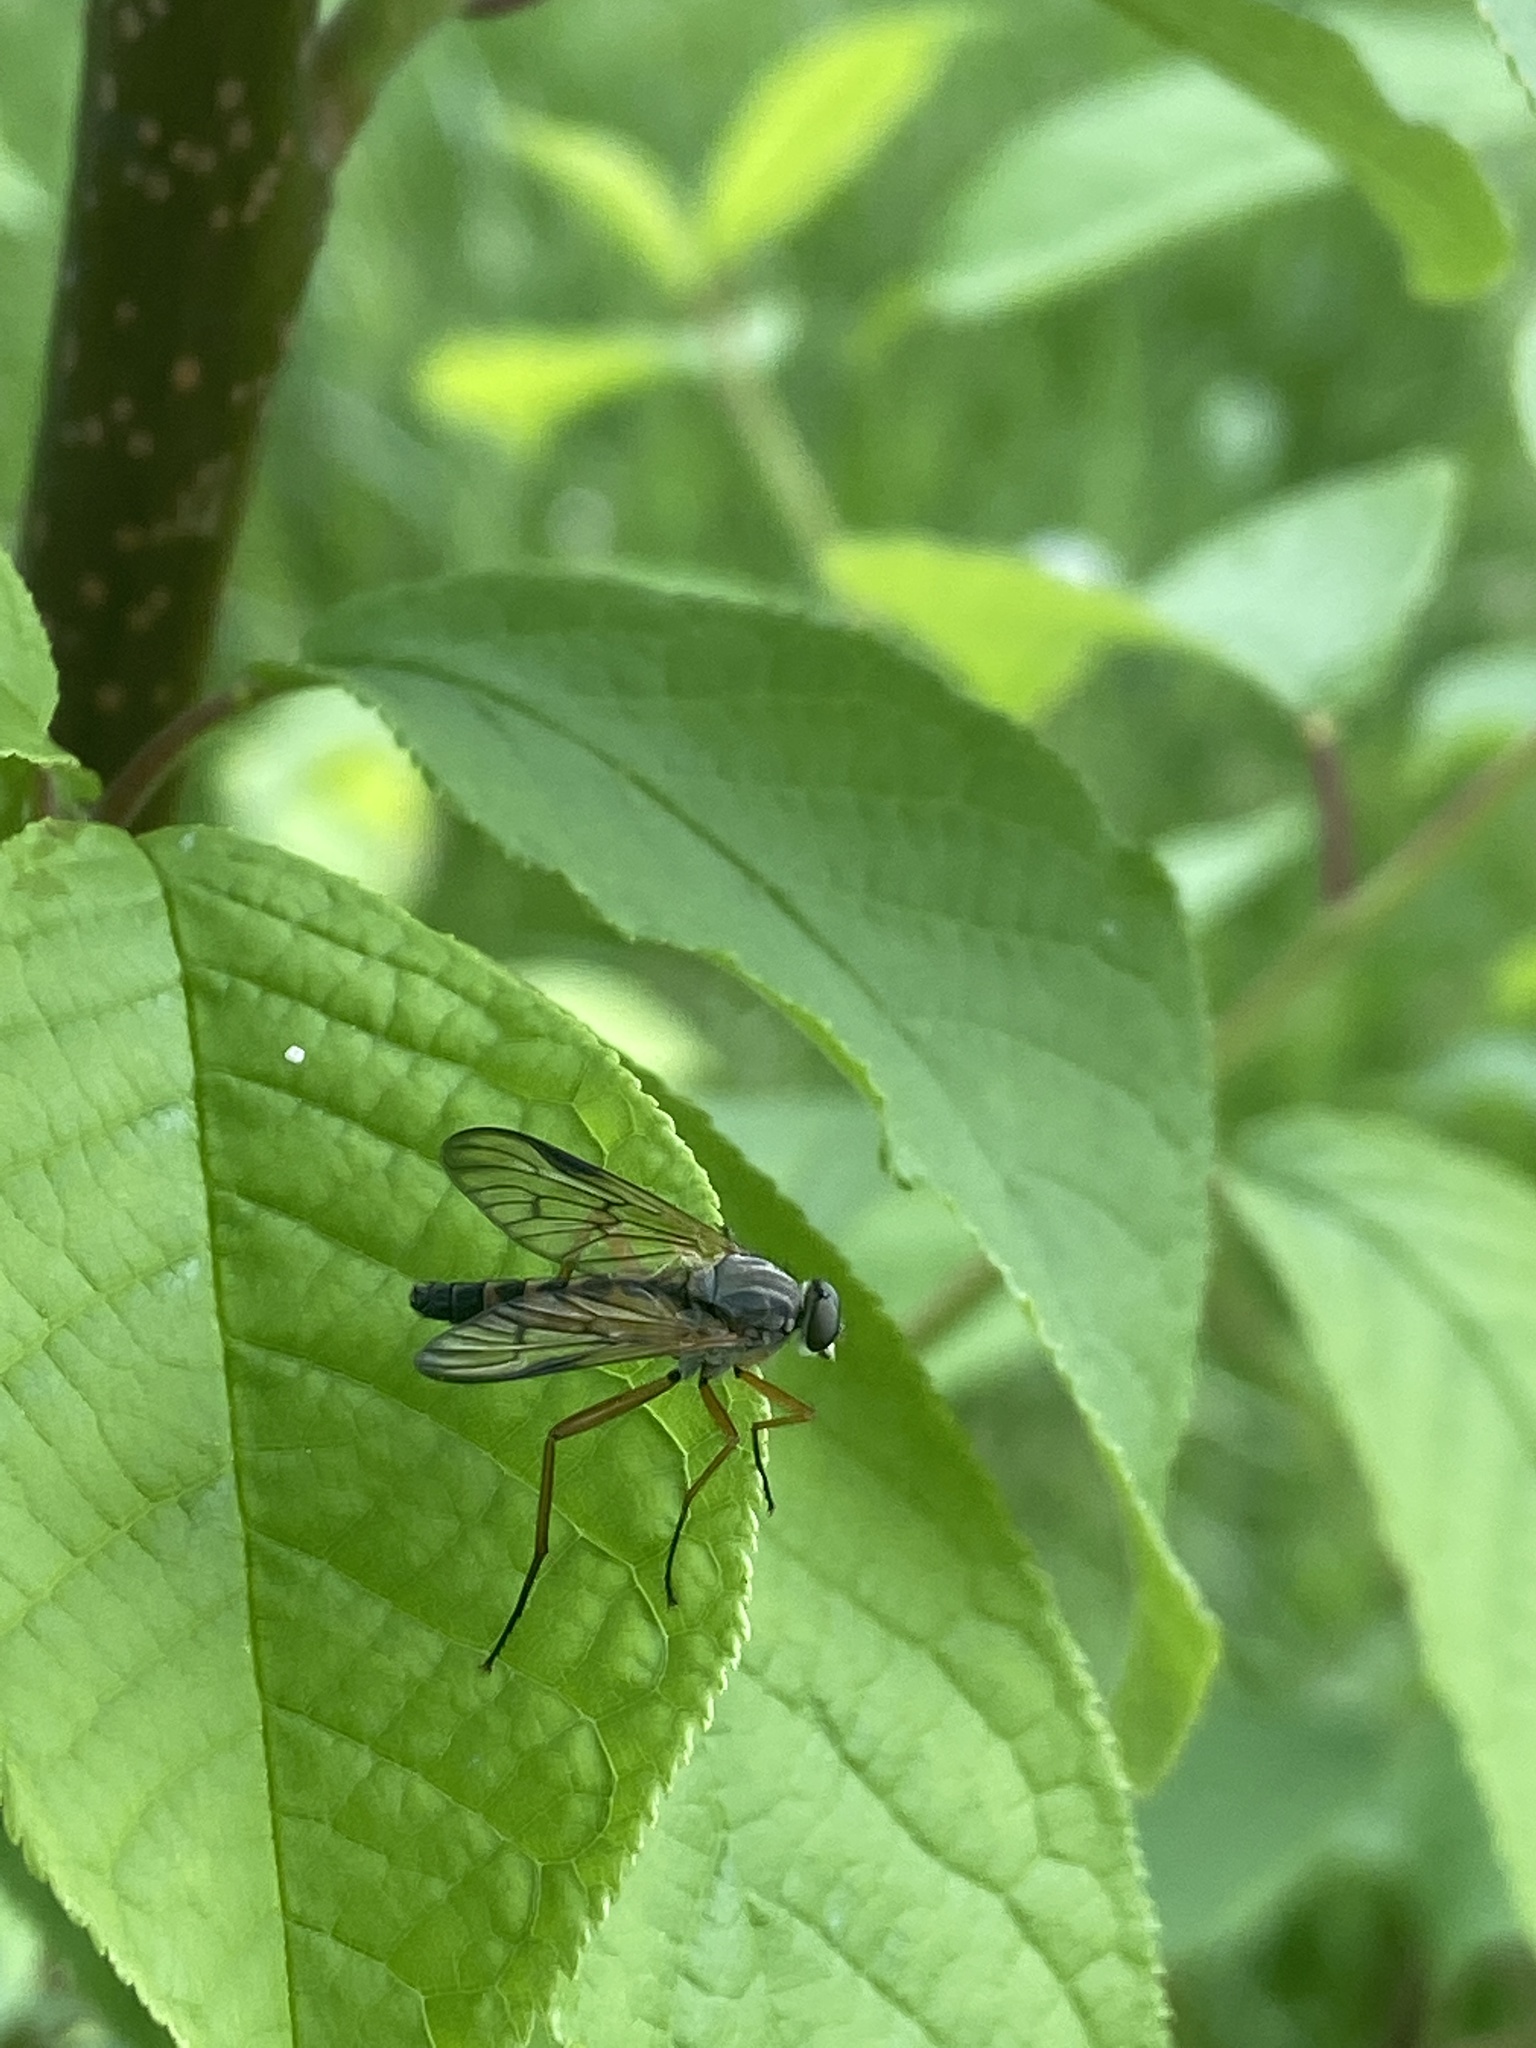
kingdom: Animalia
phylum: Arthropoda
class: Insecta
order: Diptera
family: Rhagionidae
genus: Rhagio
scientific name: Rhagio vitripennis
